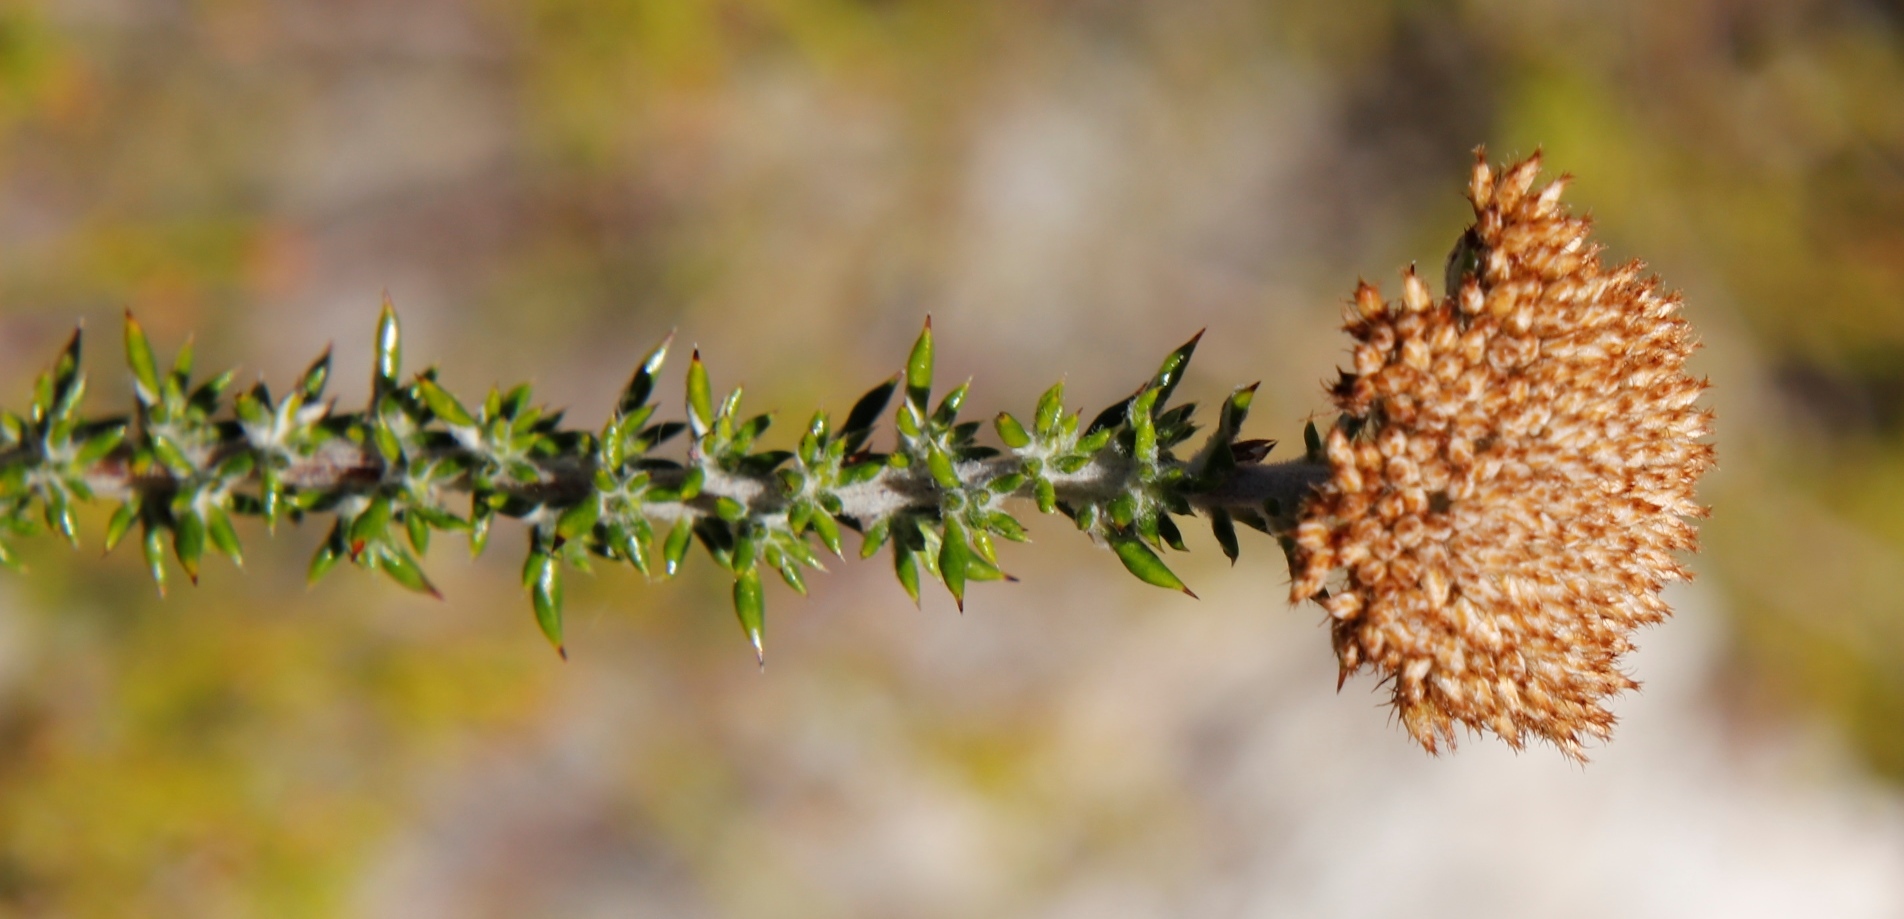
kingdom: Plantae
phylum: Tracheophyta
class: Magnoliopsida
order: Asterales
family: Asteraceae
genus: Metalasia
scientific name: Metalasia densa
